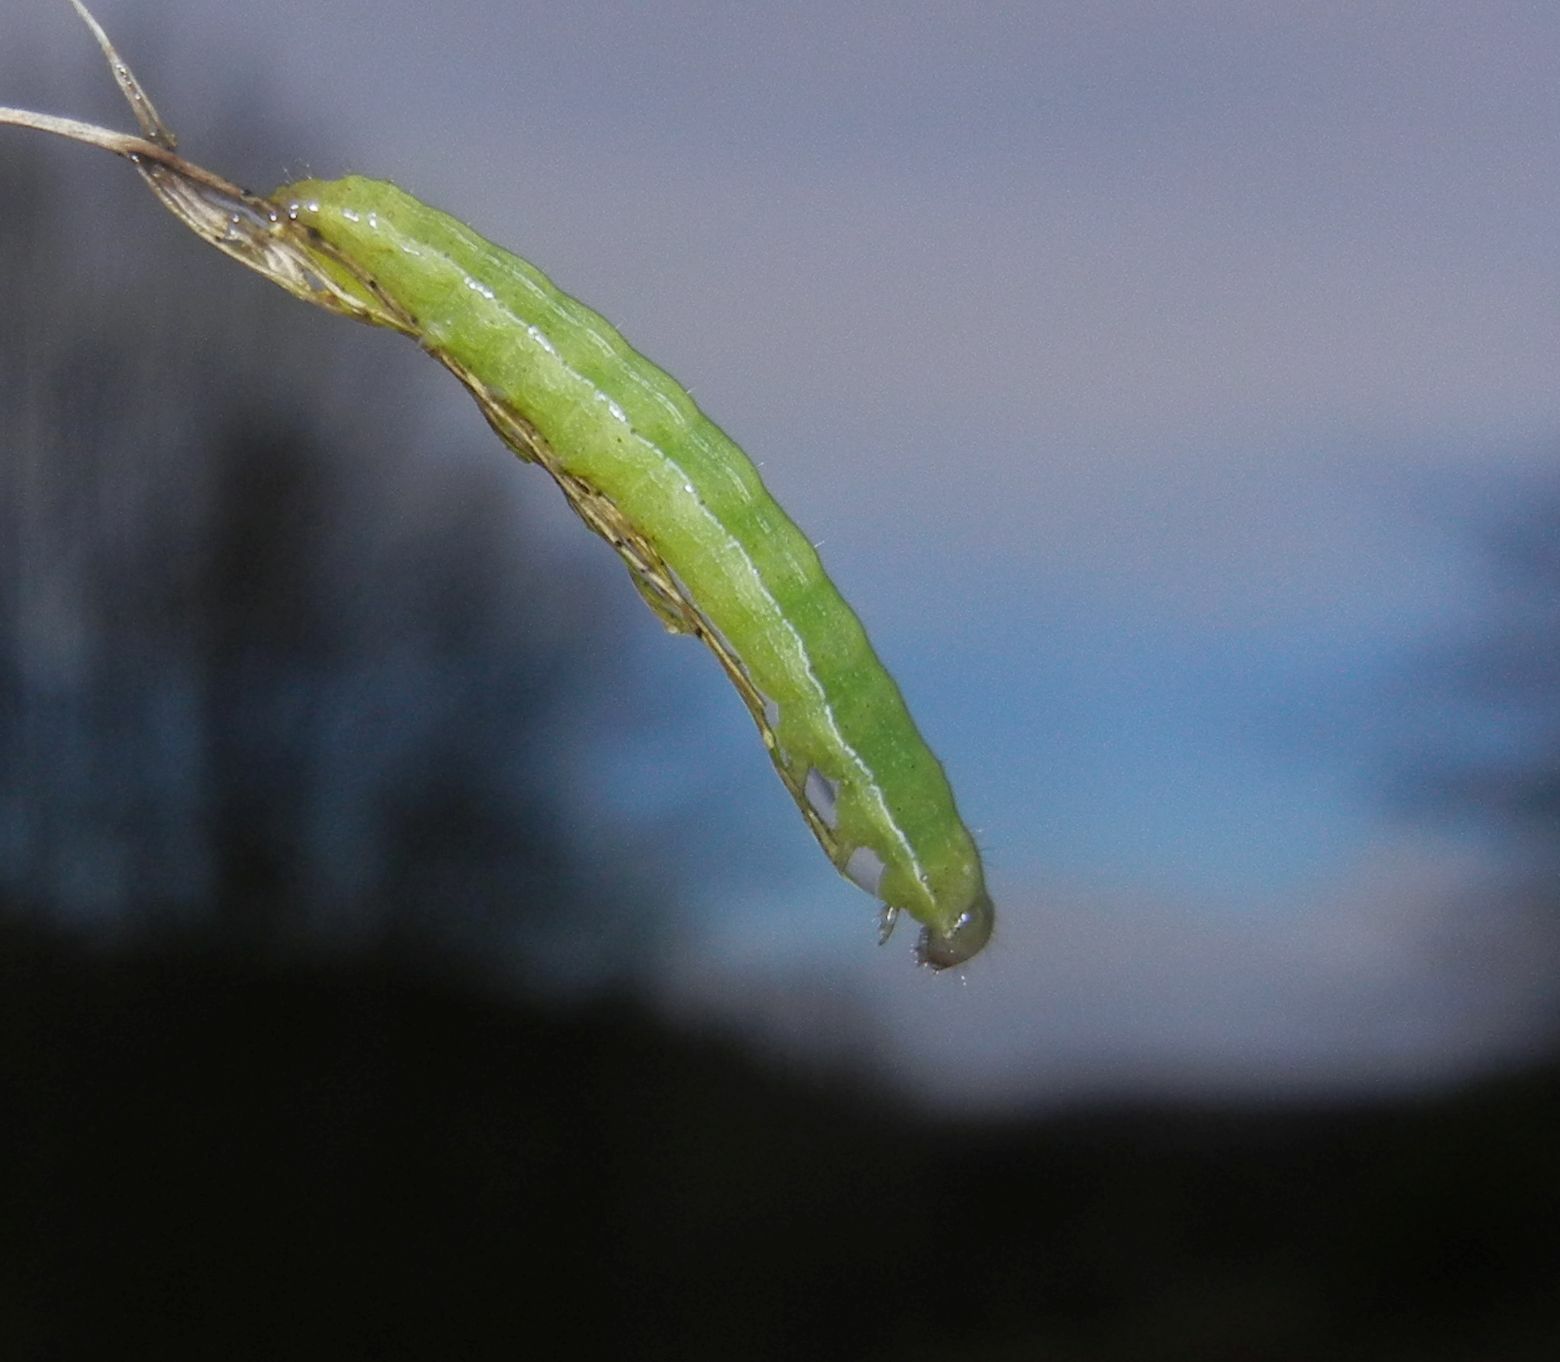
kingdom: Animalia
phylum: Arthropoda
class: Insecta
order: Lepidoptera
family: Noctuidae
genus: Noctua
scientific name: Noctua pronuba
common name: Large yellow underwing
